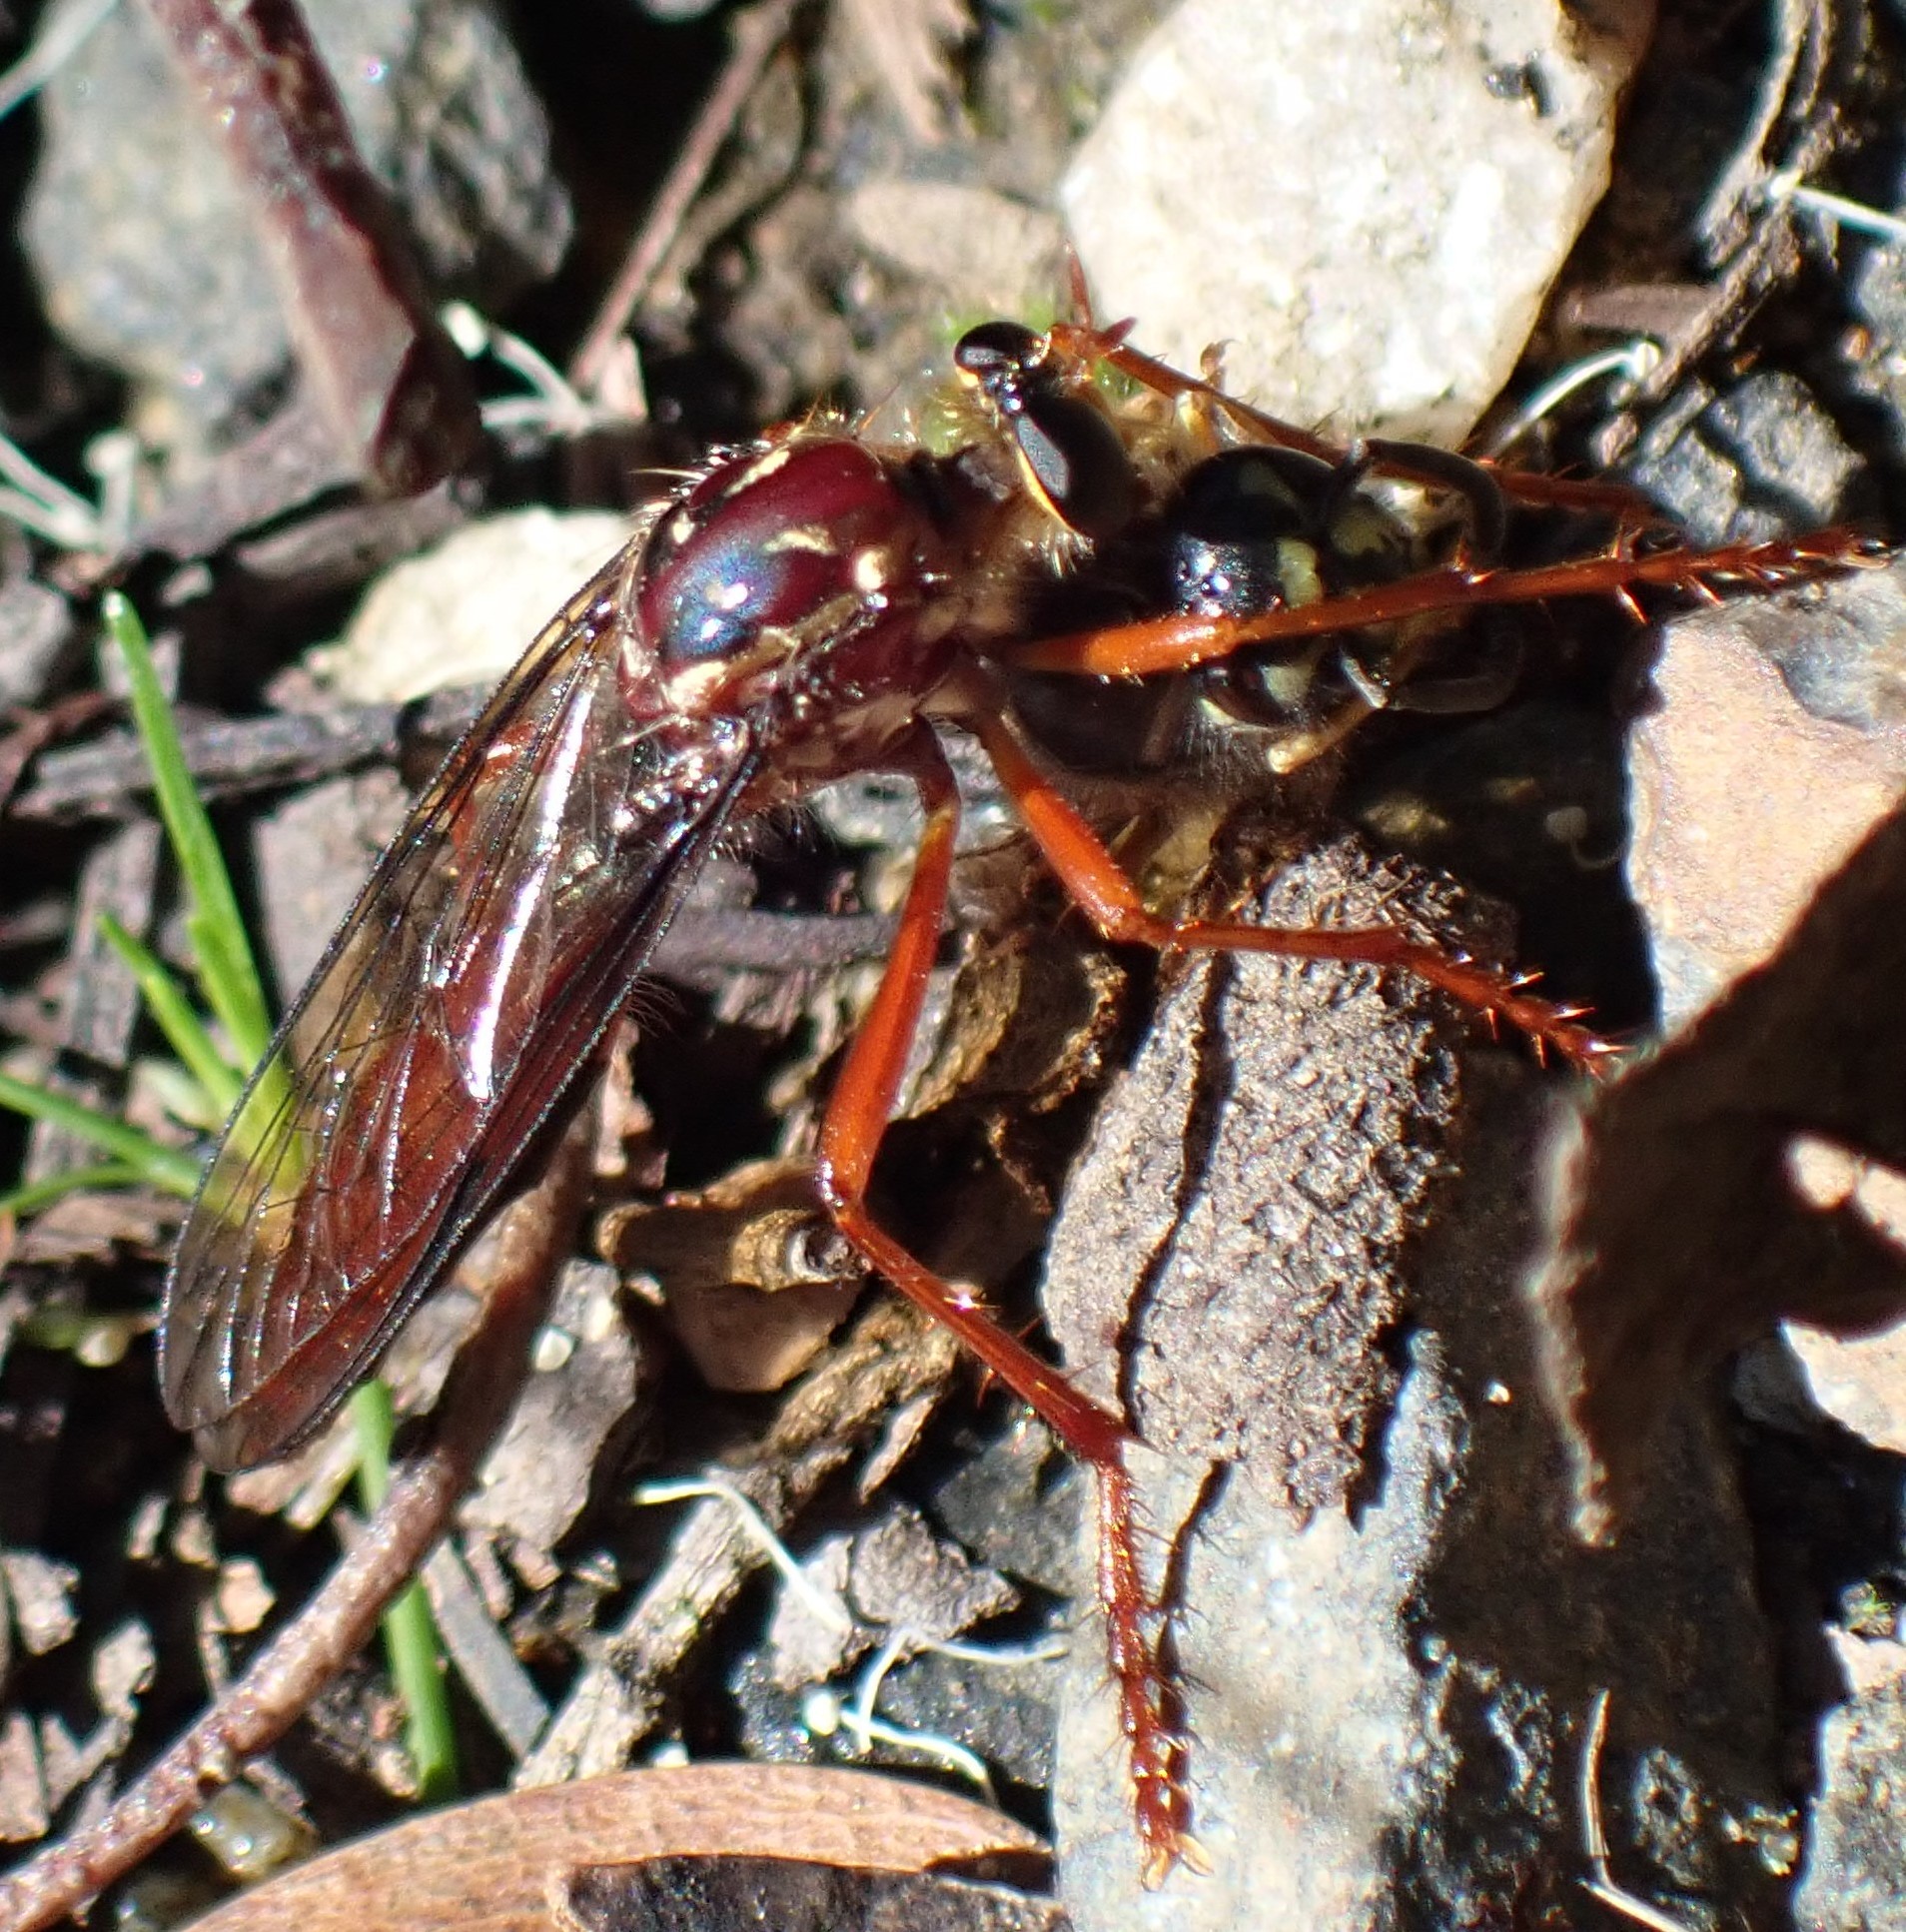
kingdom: Animalia
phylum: Arthropoda
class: Insecta
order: Diptera
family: Asilidae
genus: Humorolethalis
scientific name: Humorolethalis sergius
